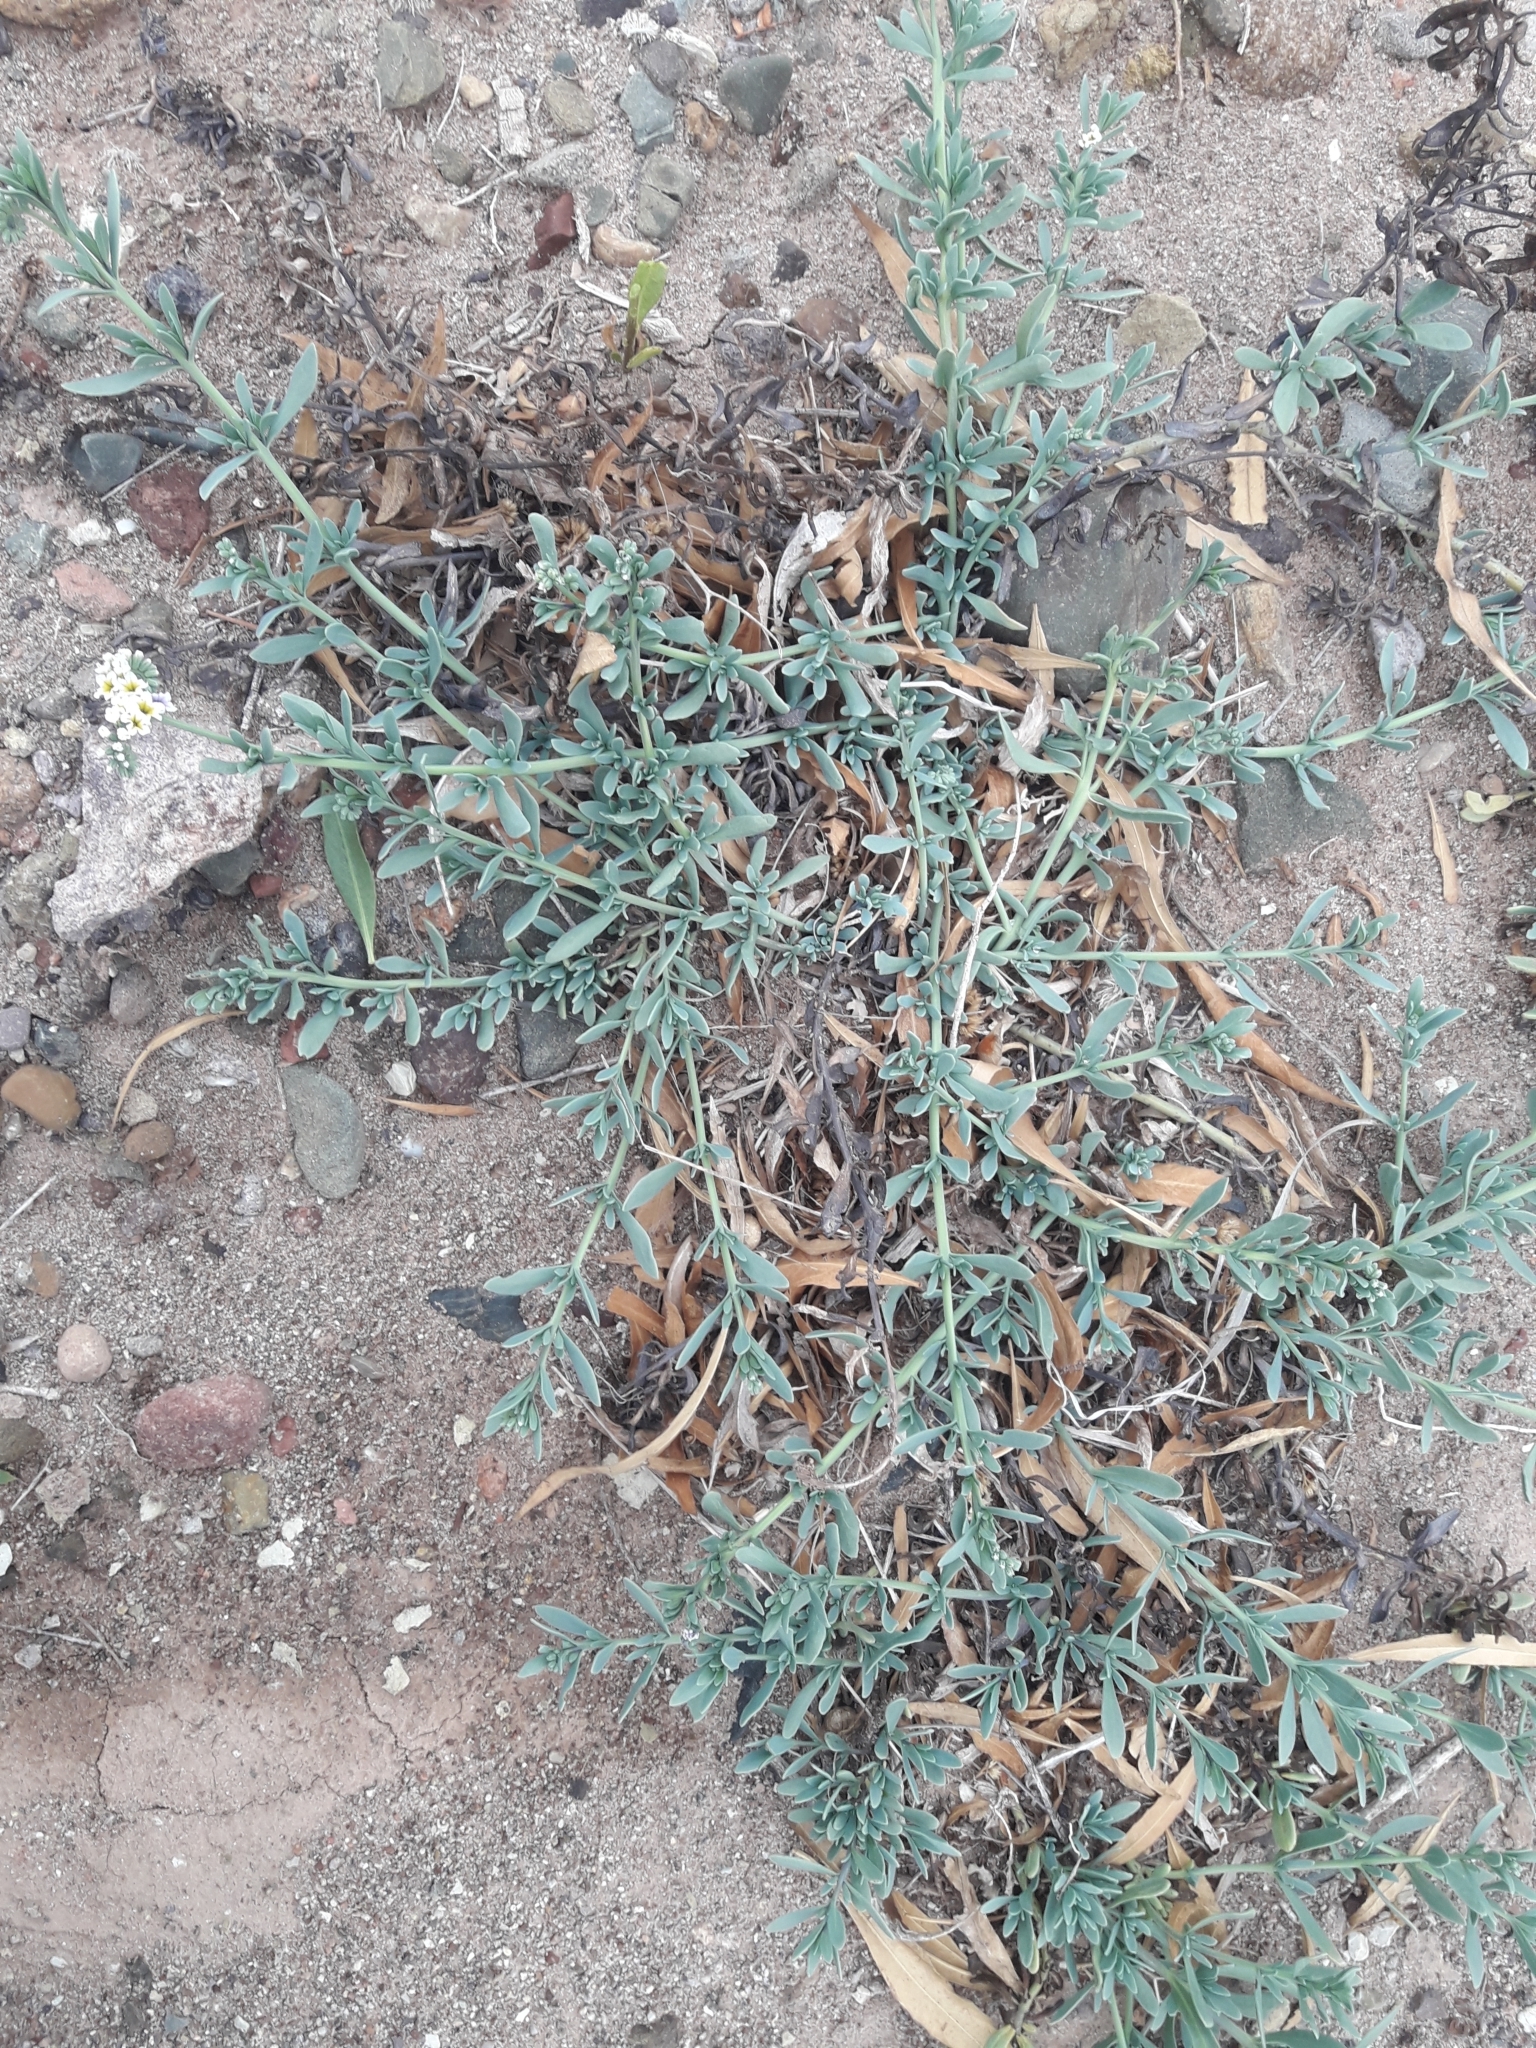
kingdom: Plantae
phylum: Tracheophyta
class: Magnoliopsida
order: Boraginales
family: Heliotropiaceae
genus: Heliotropium
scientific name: Heliotropium curassavicum
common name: Seaside heliotrope
